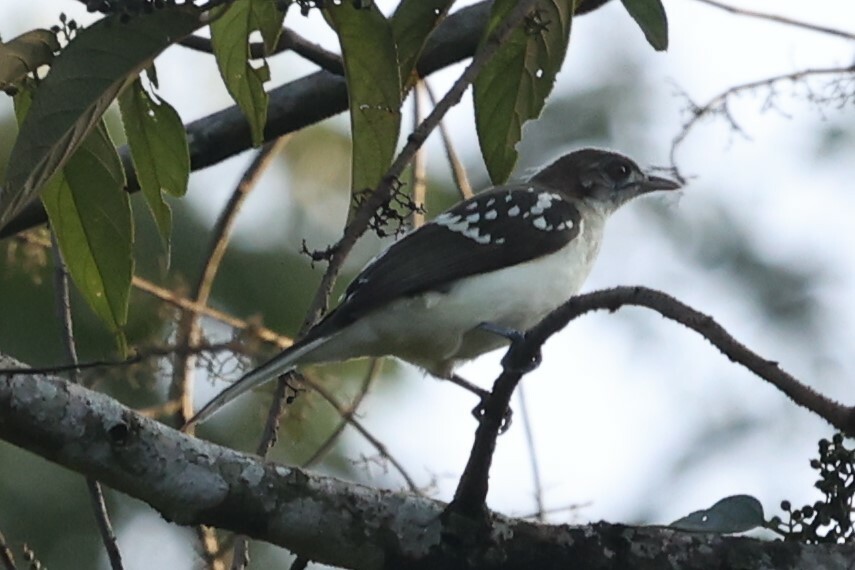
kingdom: Animalia
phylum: Chordata
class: Aves
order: Passeriformes
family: Pycnonotidae
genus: Ixonotus
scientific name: Ixonotus guttatus
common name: Spotted greenbul
